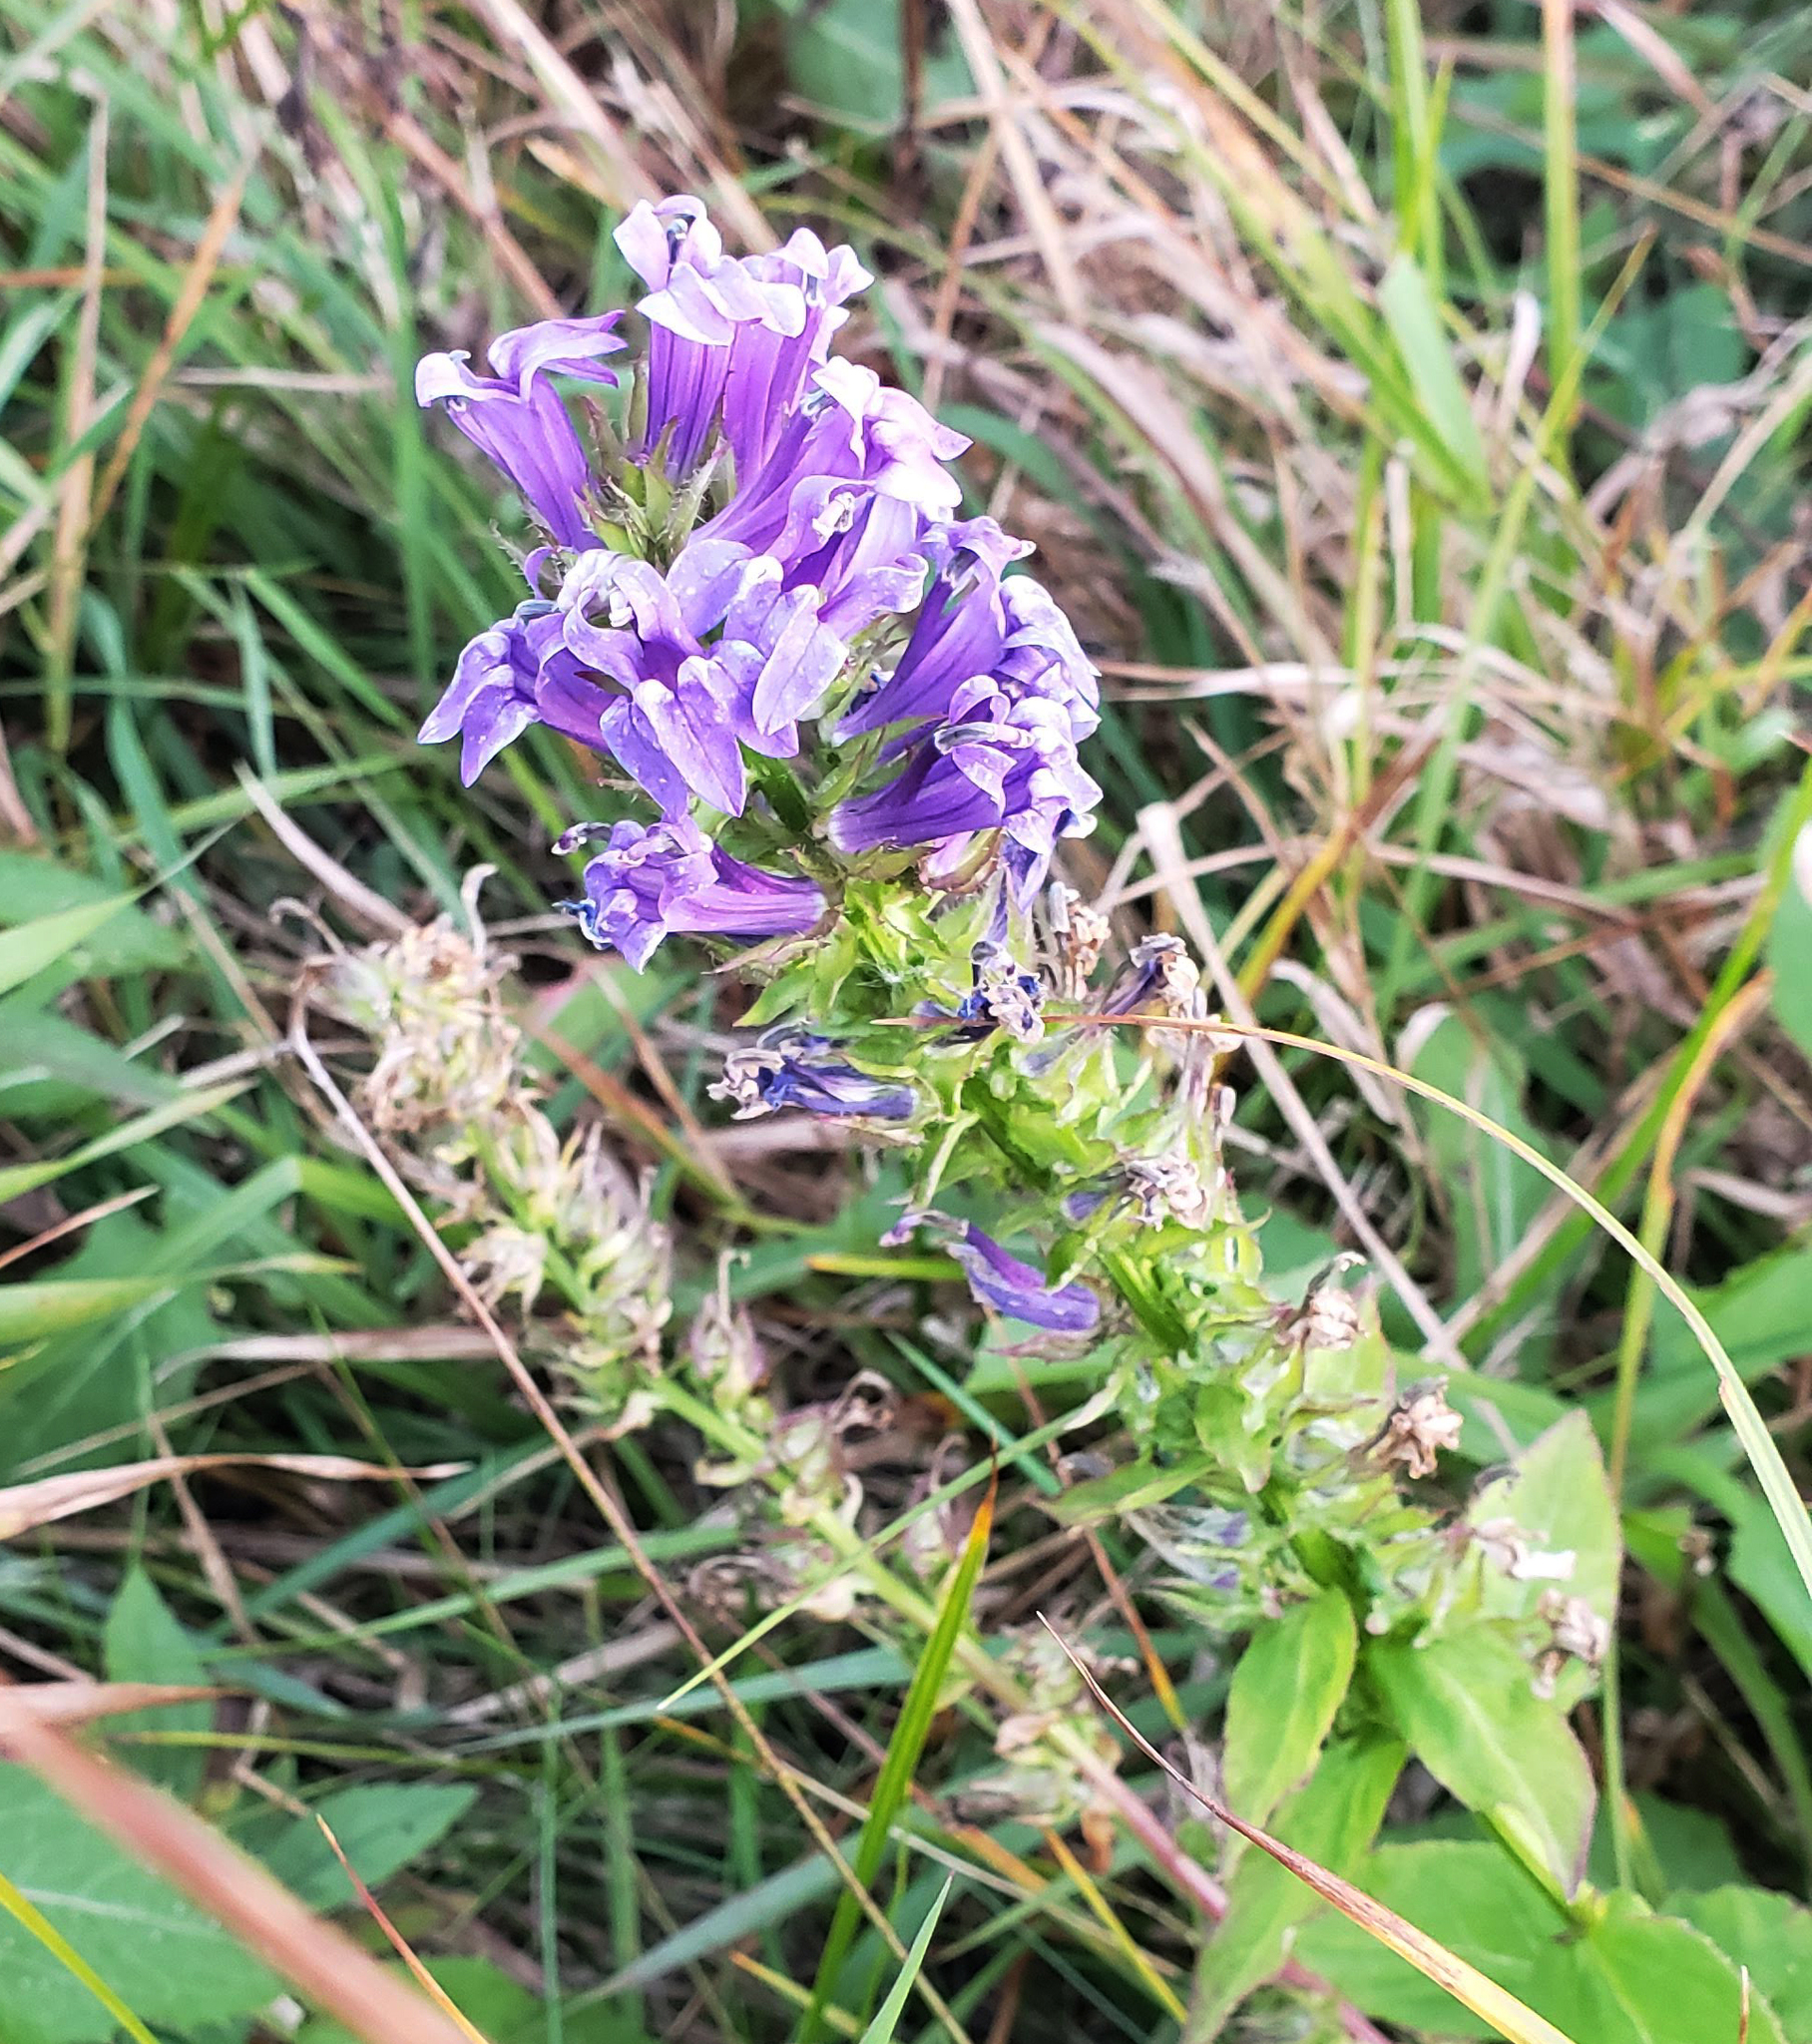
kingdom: Plantae
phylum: Tracheophyta
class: Magnoliopsida
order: Asterales
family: Campanulaceae
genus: Lobelia
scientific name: Lobelia siphilitica
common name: Great lobelia
